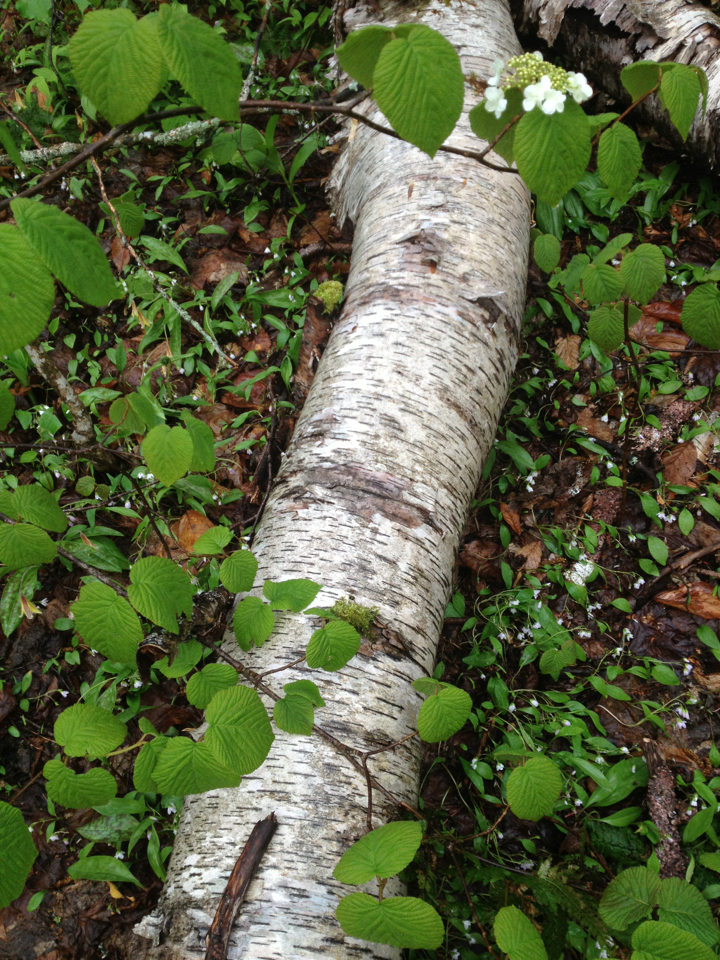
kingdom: Plantae
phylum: Tracheophyta
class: Magnoliopsida
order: Fagales
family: Betulaceae
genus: Betula
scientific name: Betula populifolia
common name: Fire birch
